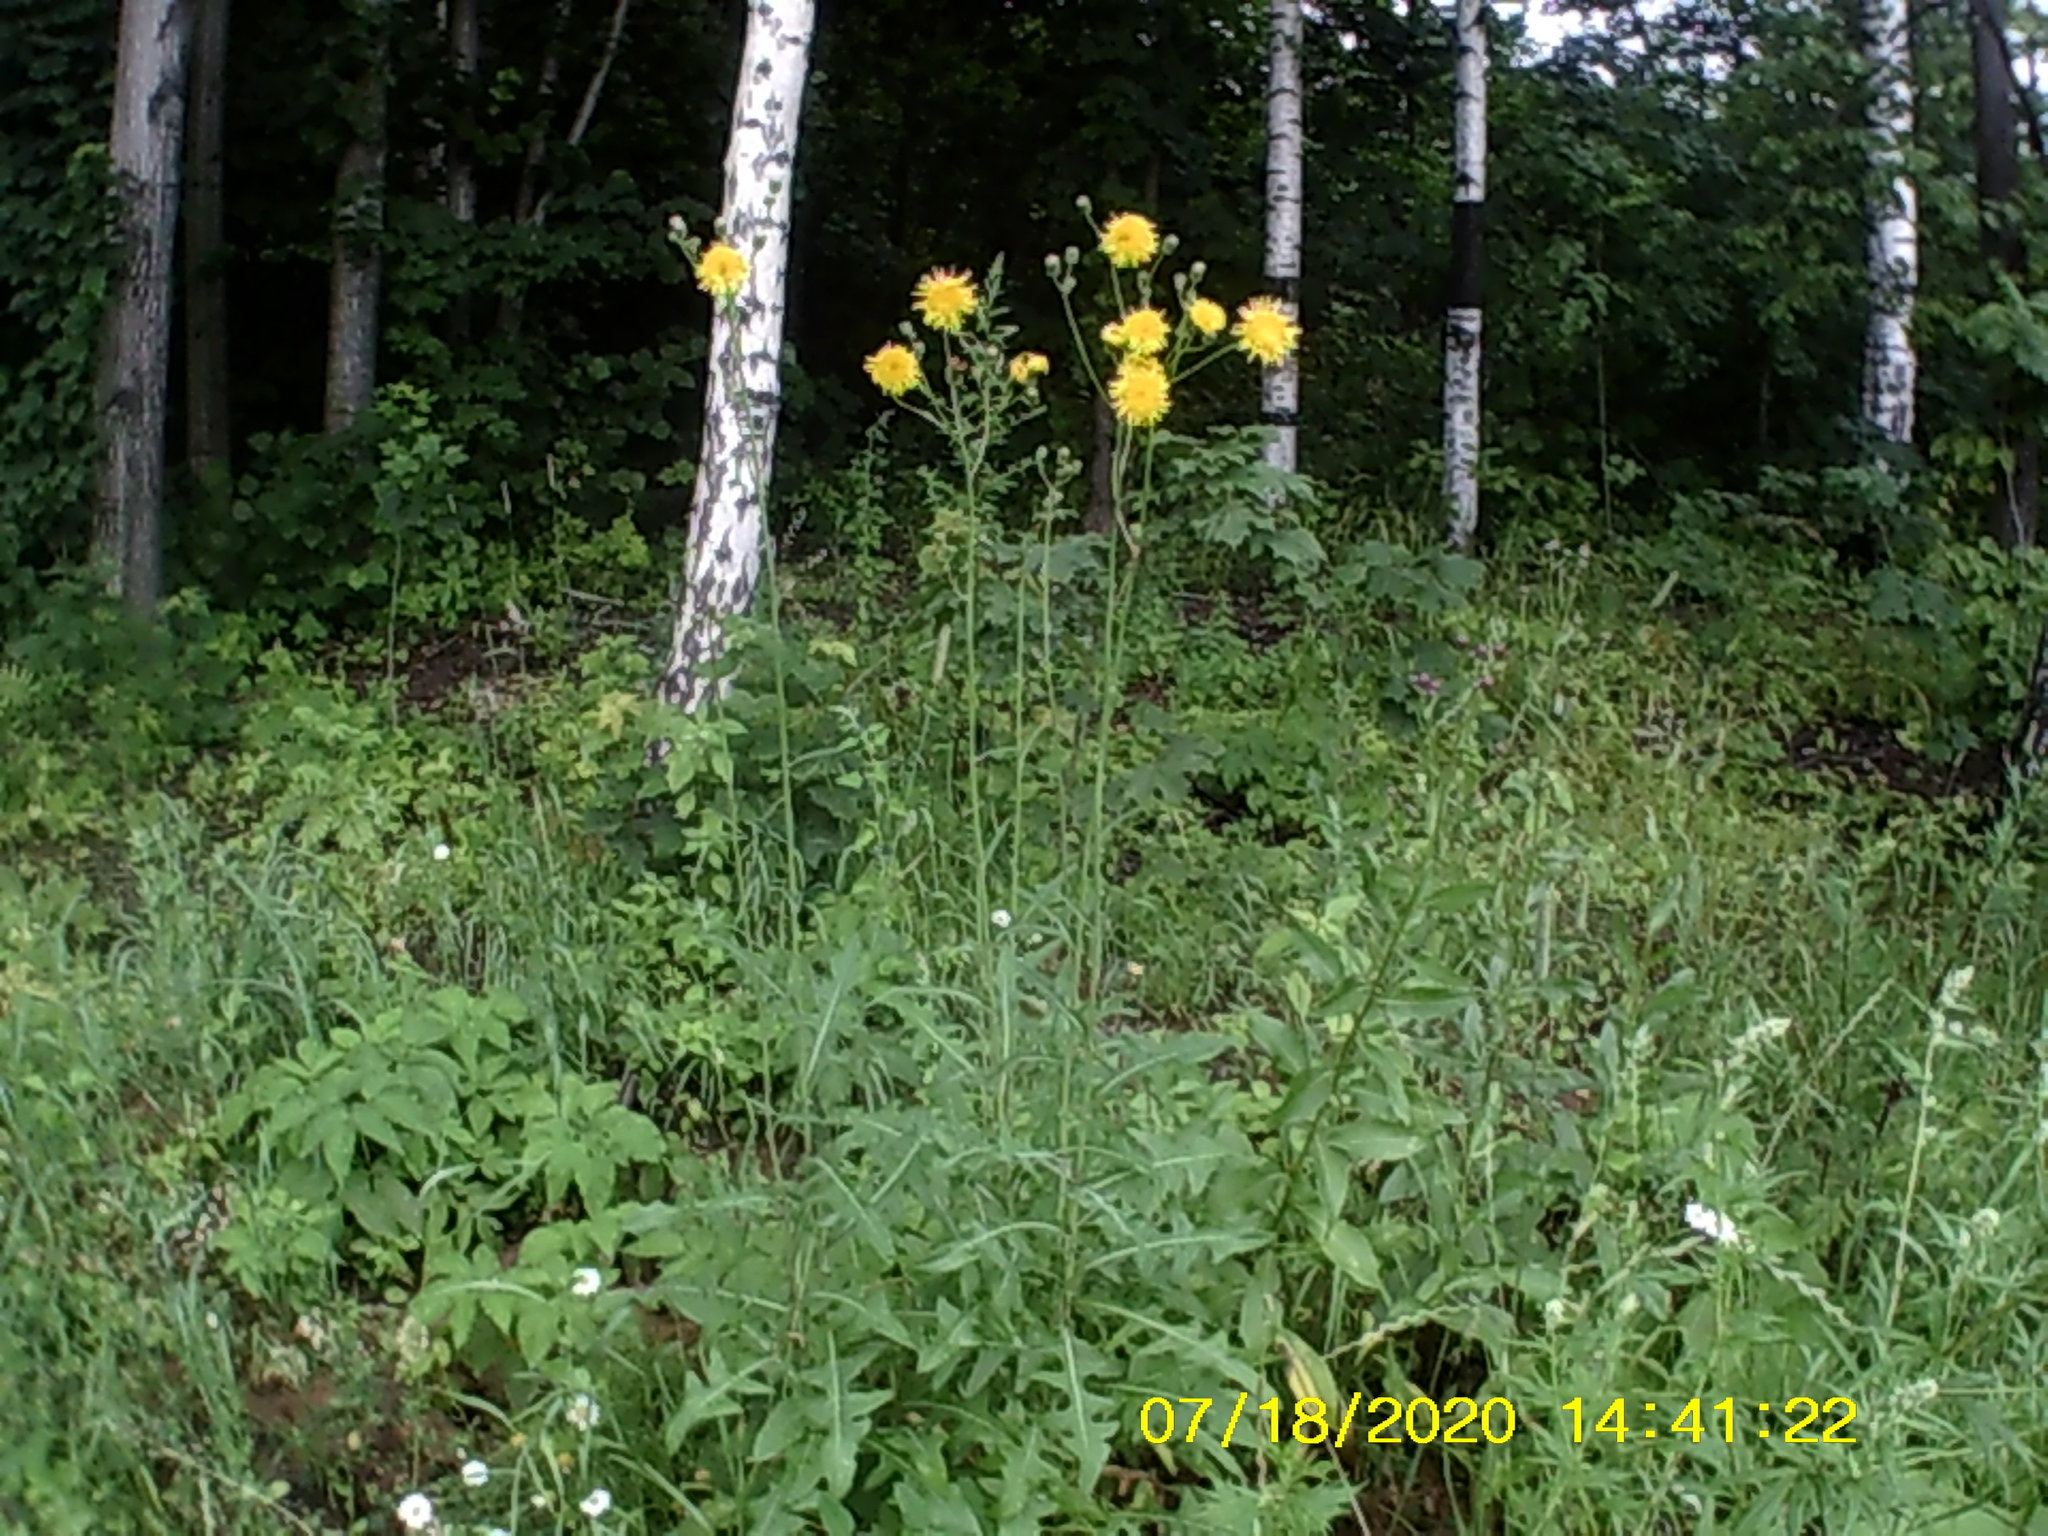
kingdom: Plantae
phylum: Tracheophyta
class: Magnoliopsida
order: Asterales
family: Asteraceae
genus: Sonchus
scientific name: Sonchus arvensis
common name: Perennial sow-thistle
